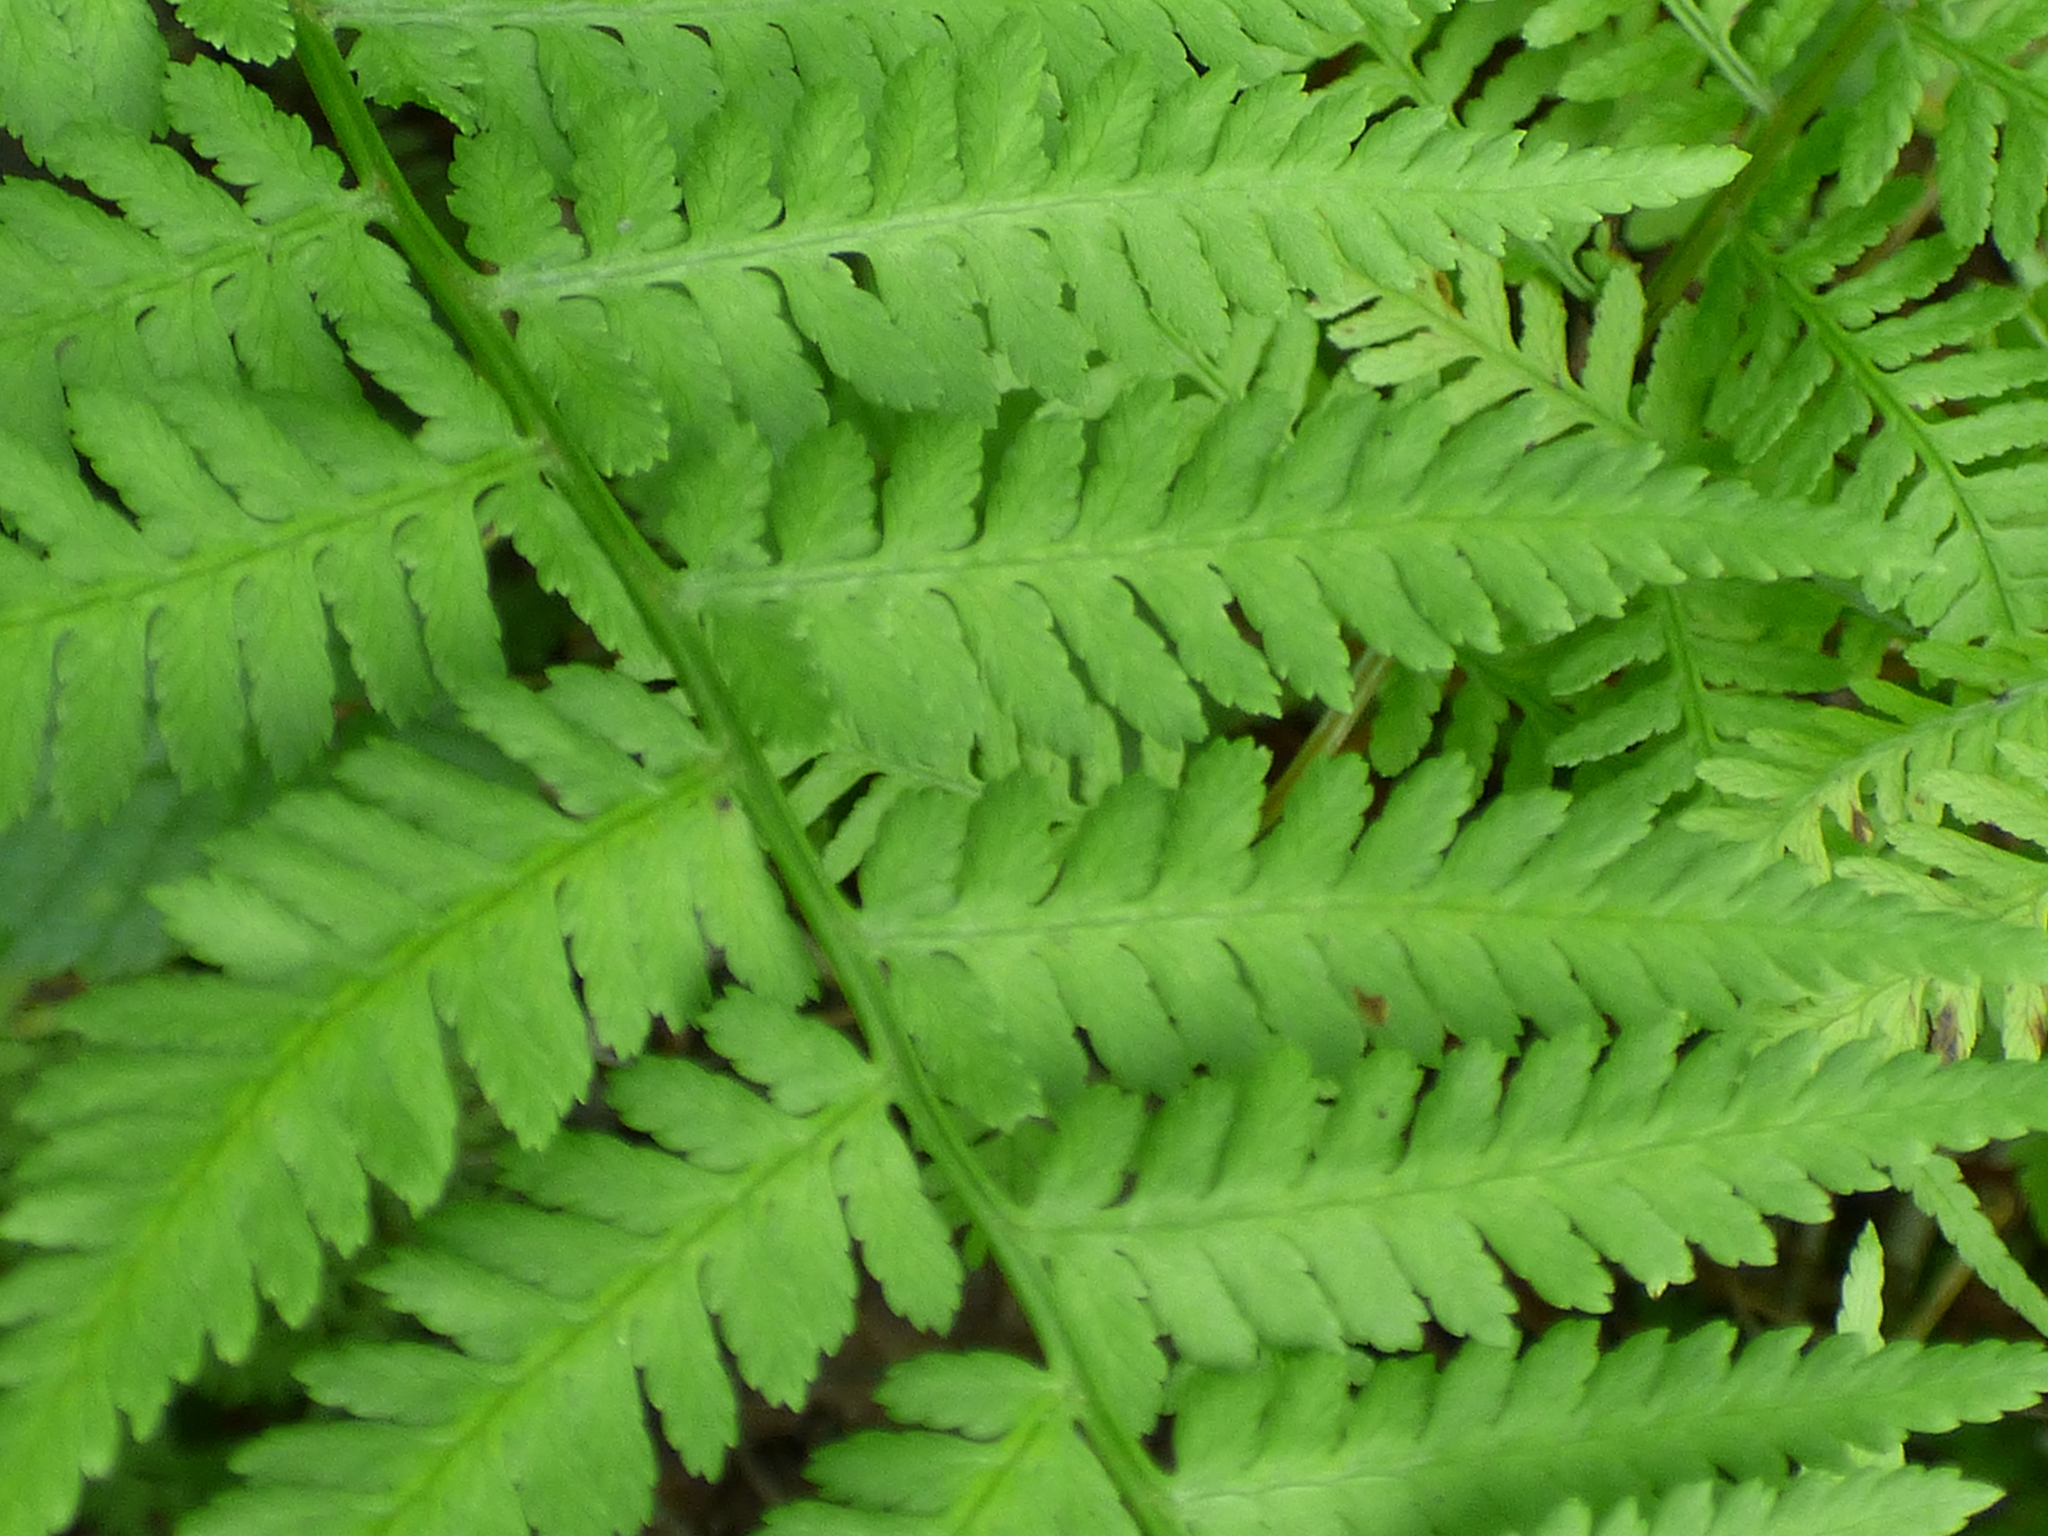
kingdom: Plantae
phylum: Tracheophyta
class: Polypodiopsida
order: Polypodiales
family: Athyriaceae
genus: Athyrium
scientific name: Athyrium asplenioides
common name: Southern lady fern
